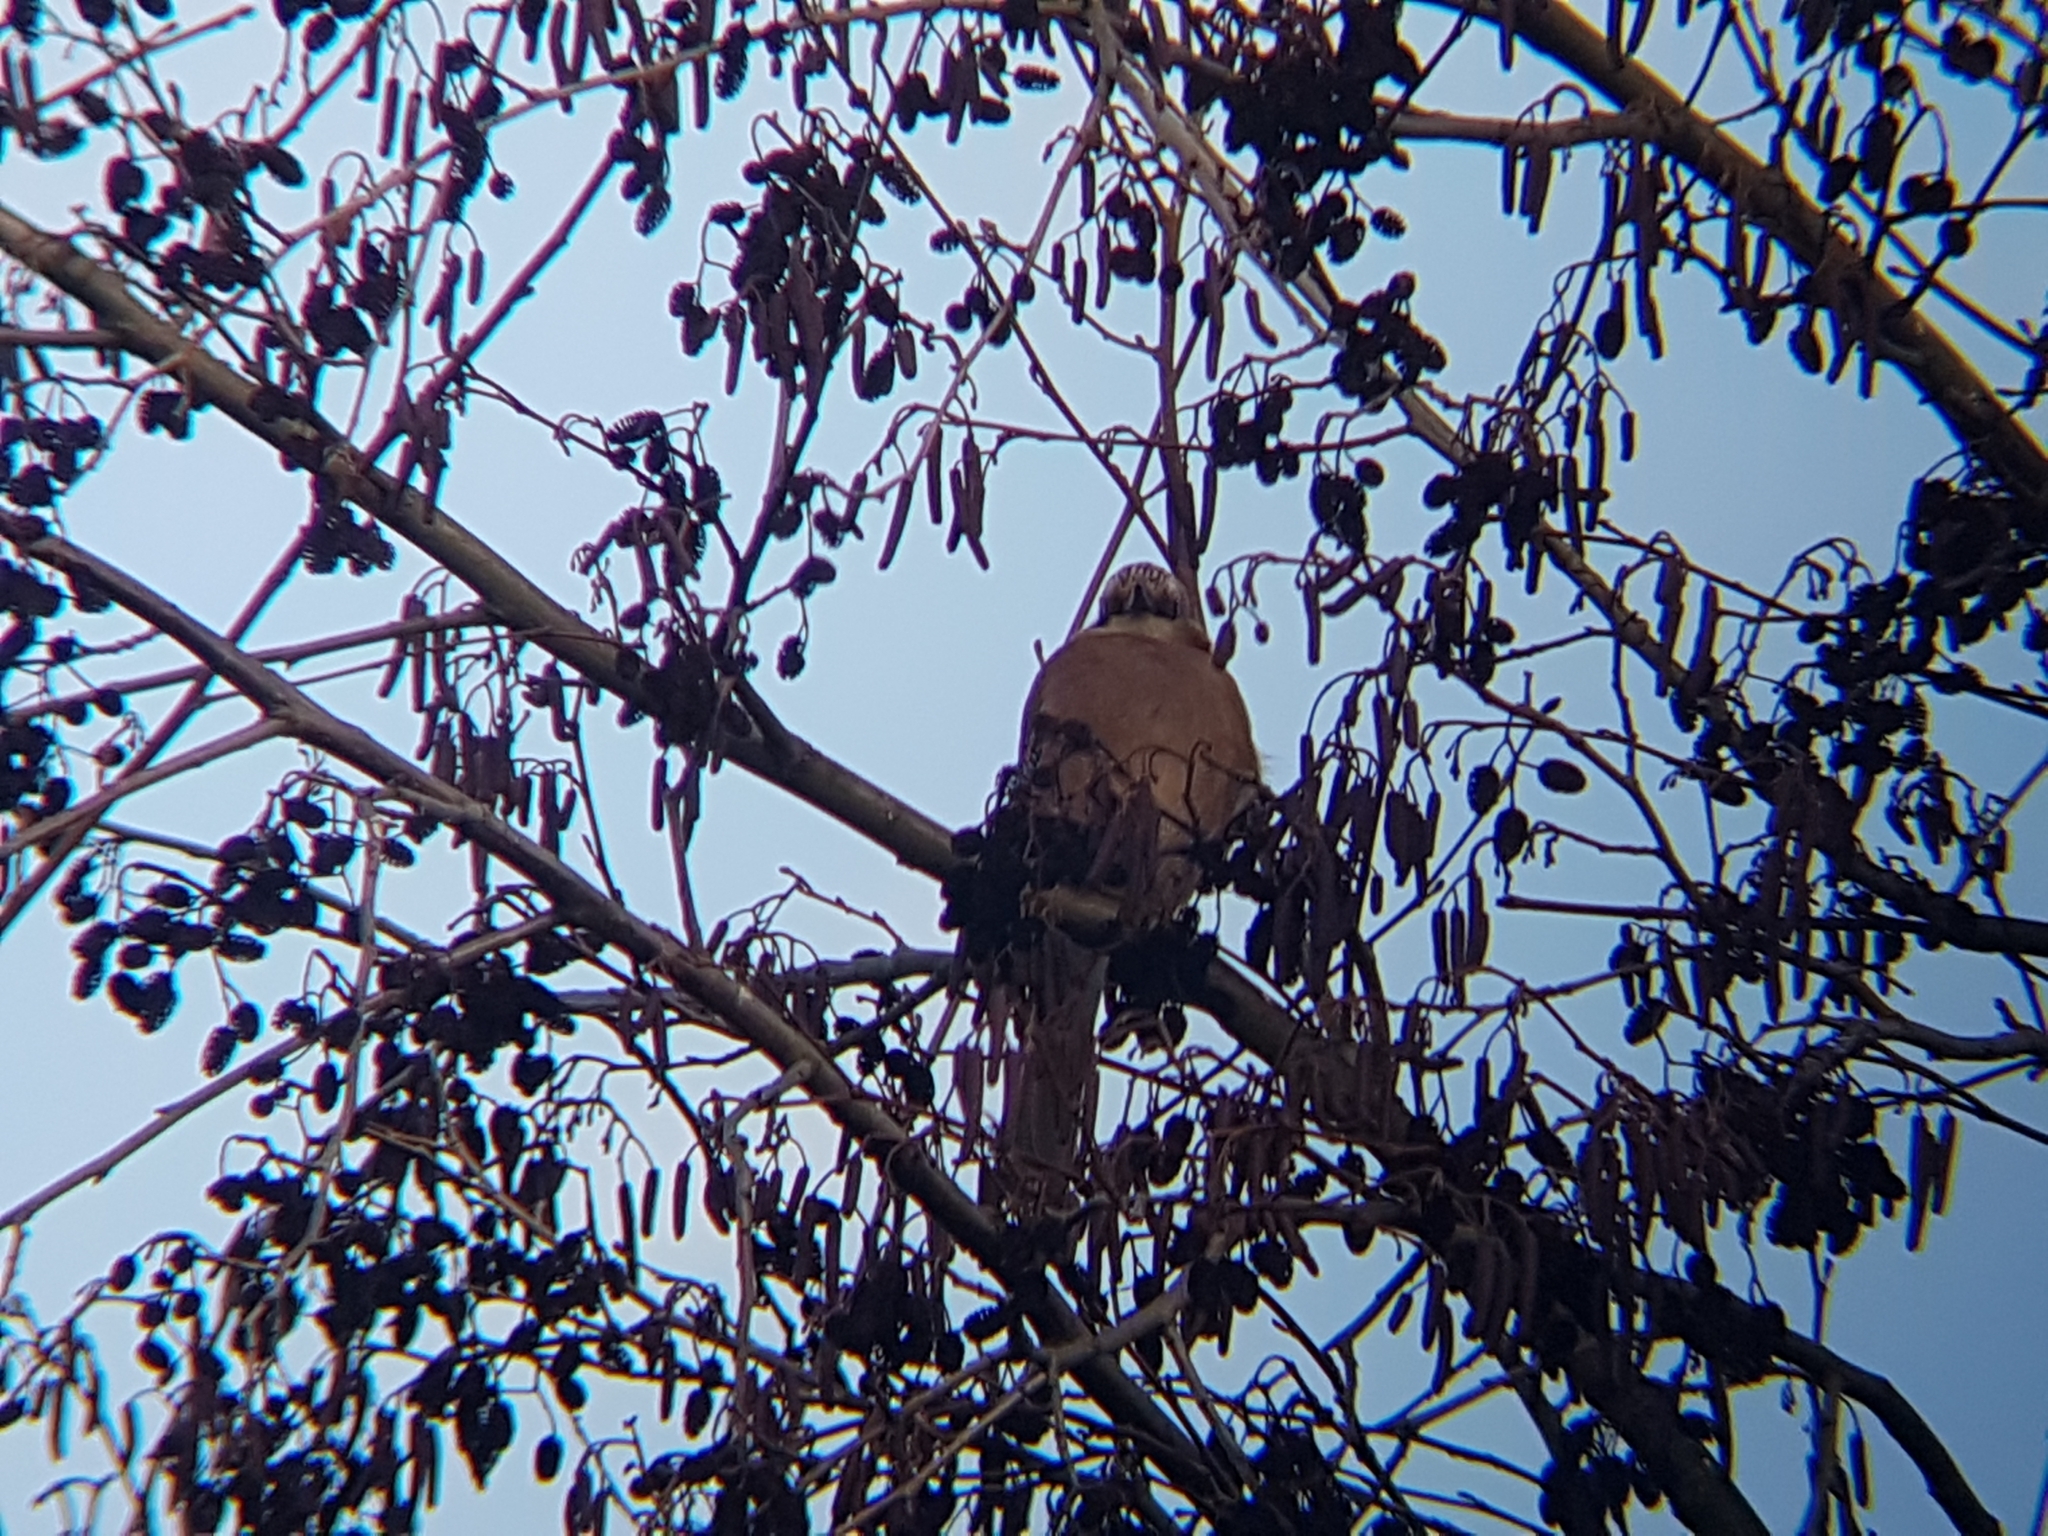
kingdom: Animalia
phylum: Chordata
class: Aves
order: Passeriformes
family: Corvidae
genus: Garrulus
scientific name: Garrulus glandarius
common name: Eurasian jay
